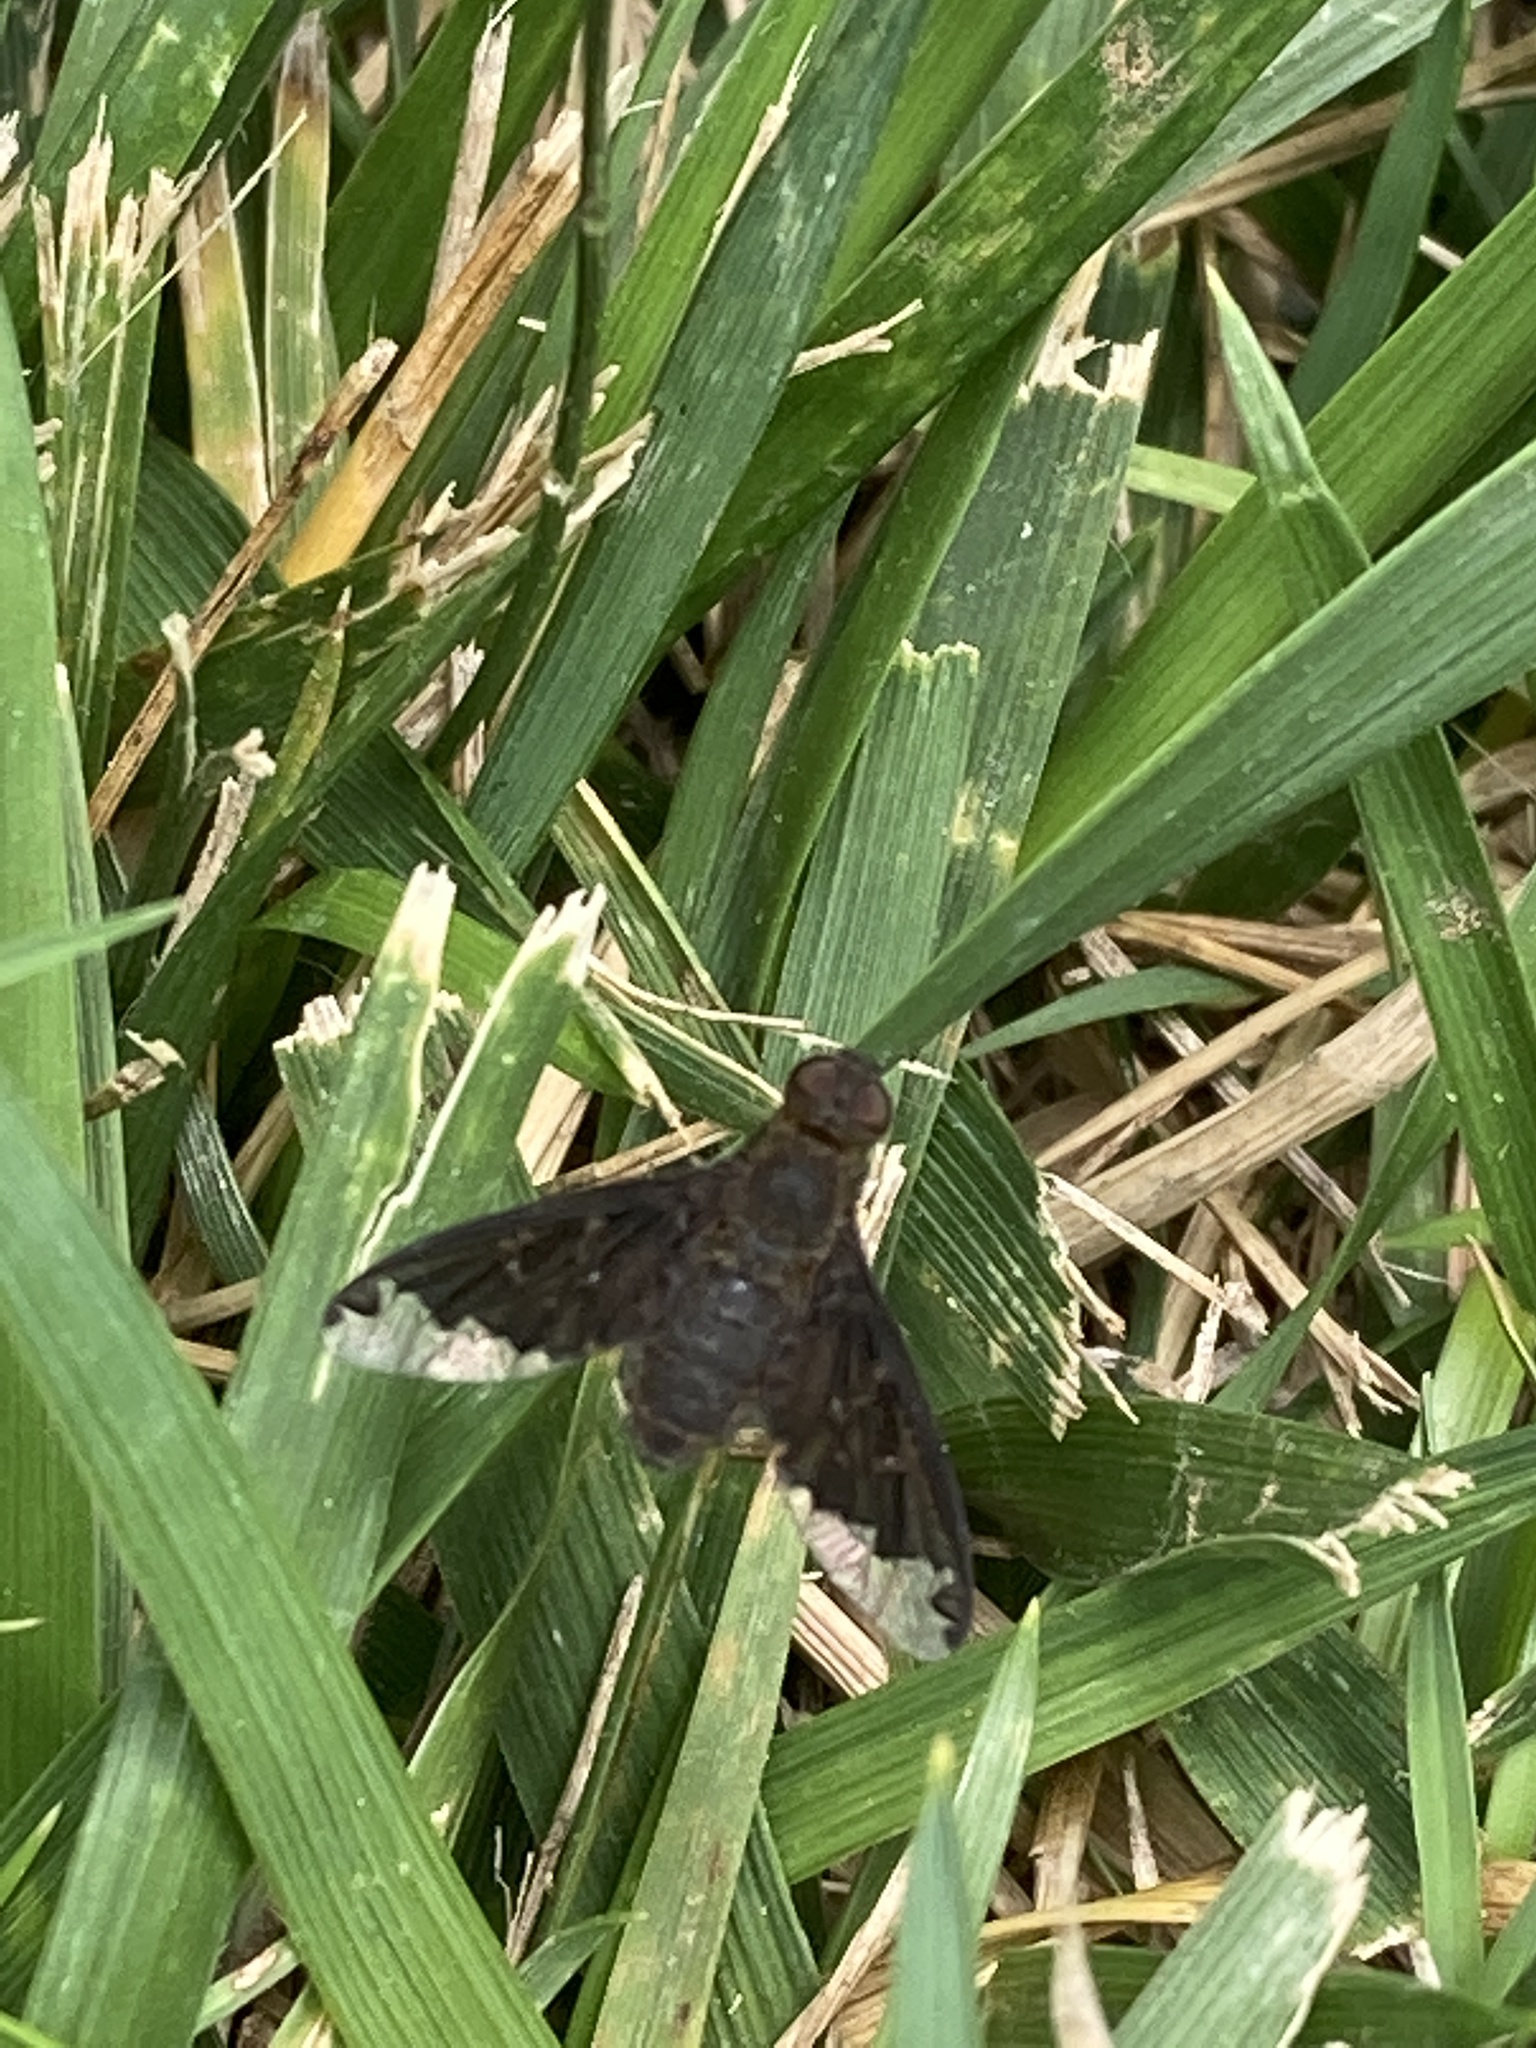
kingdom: Animalia
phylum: Arthropoda
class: Insecta
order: Diptera
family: Bombyliidae
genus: Hemipenthes
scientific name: Hemipenthes sinuosus
